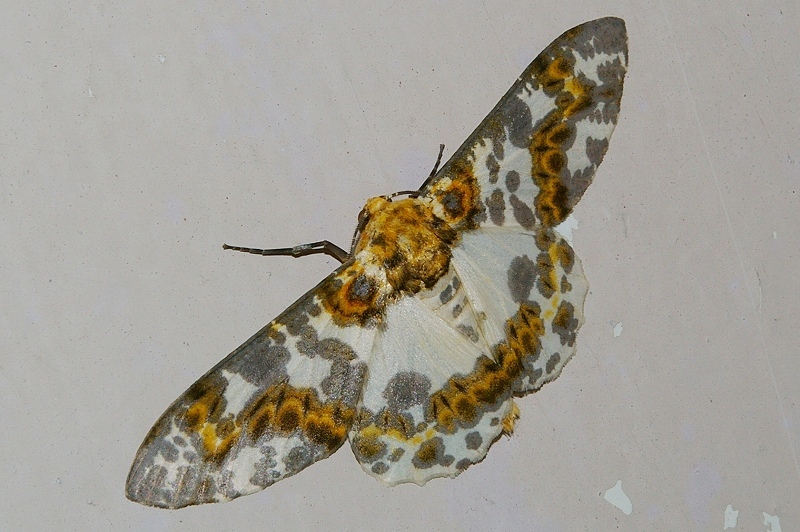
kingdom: Animalia
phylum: Arthropoda
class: Insecta
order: Lepidoptera
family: Geometridae
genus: Biston
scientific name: Biston panterinaria
